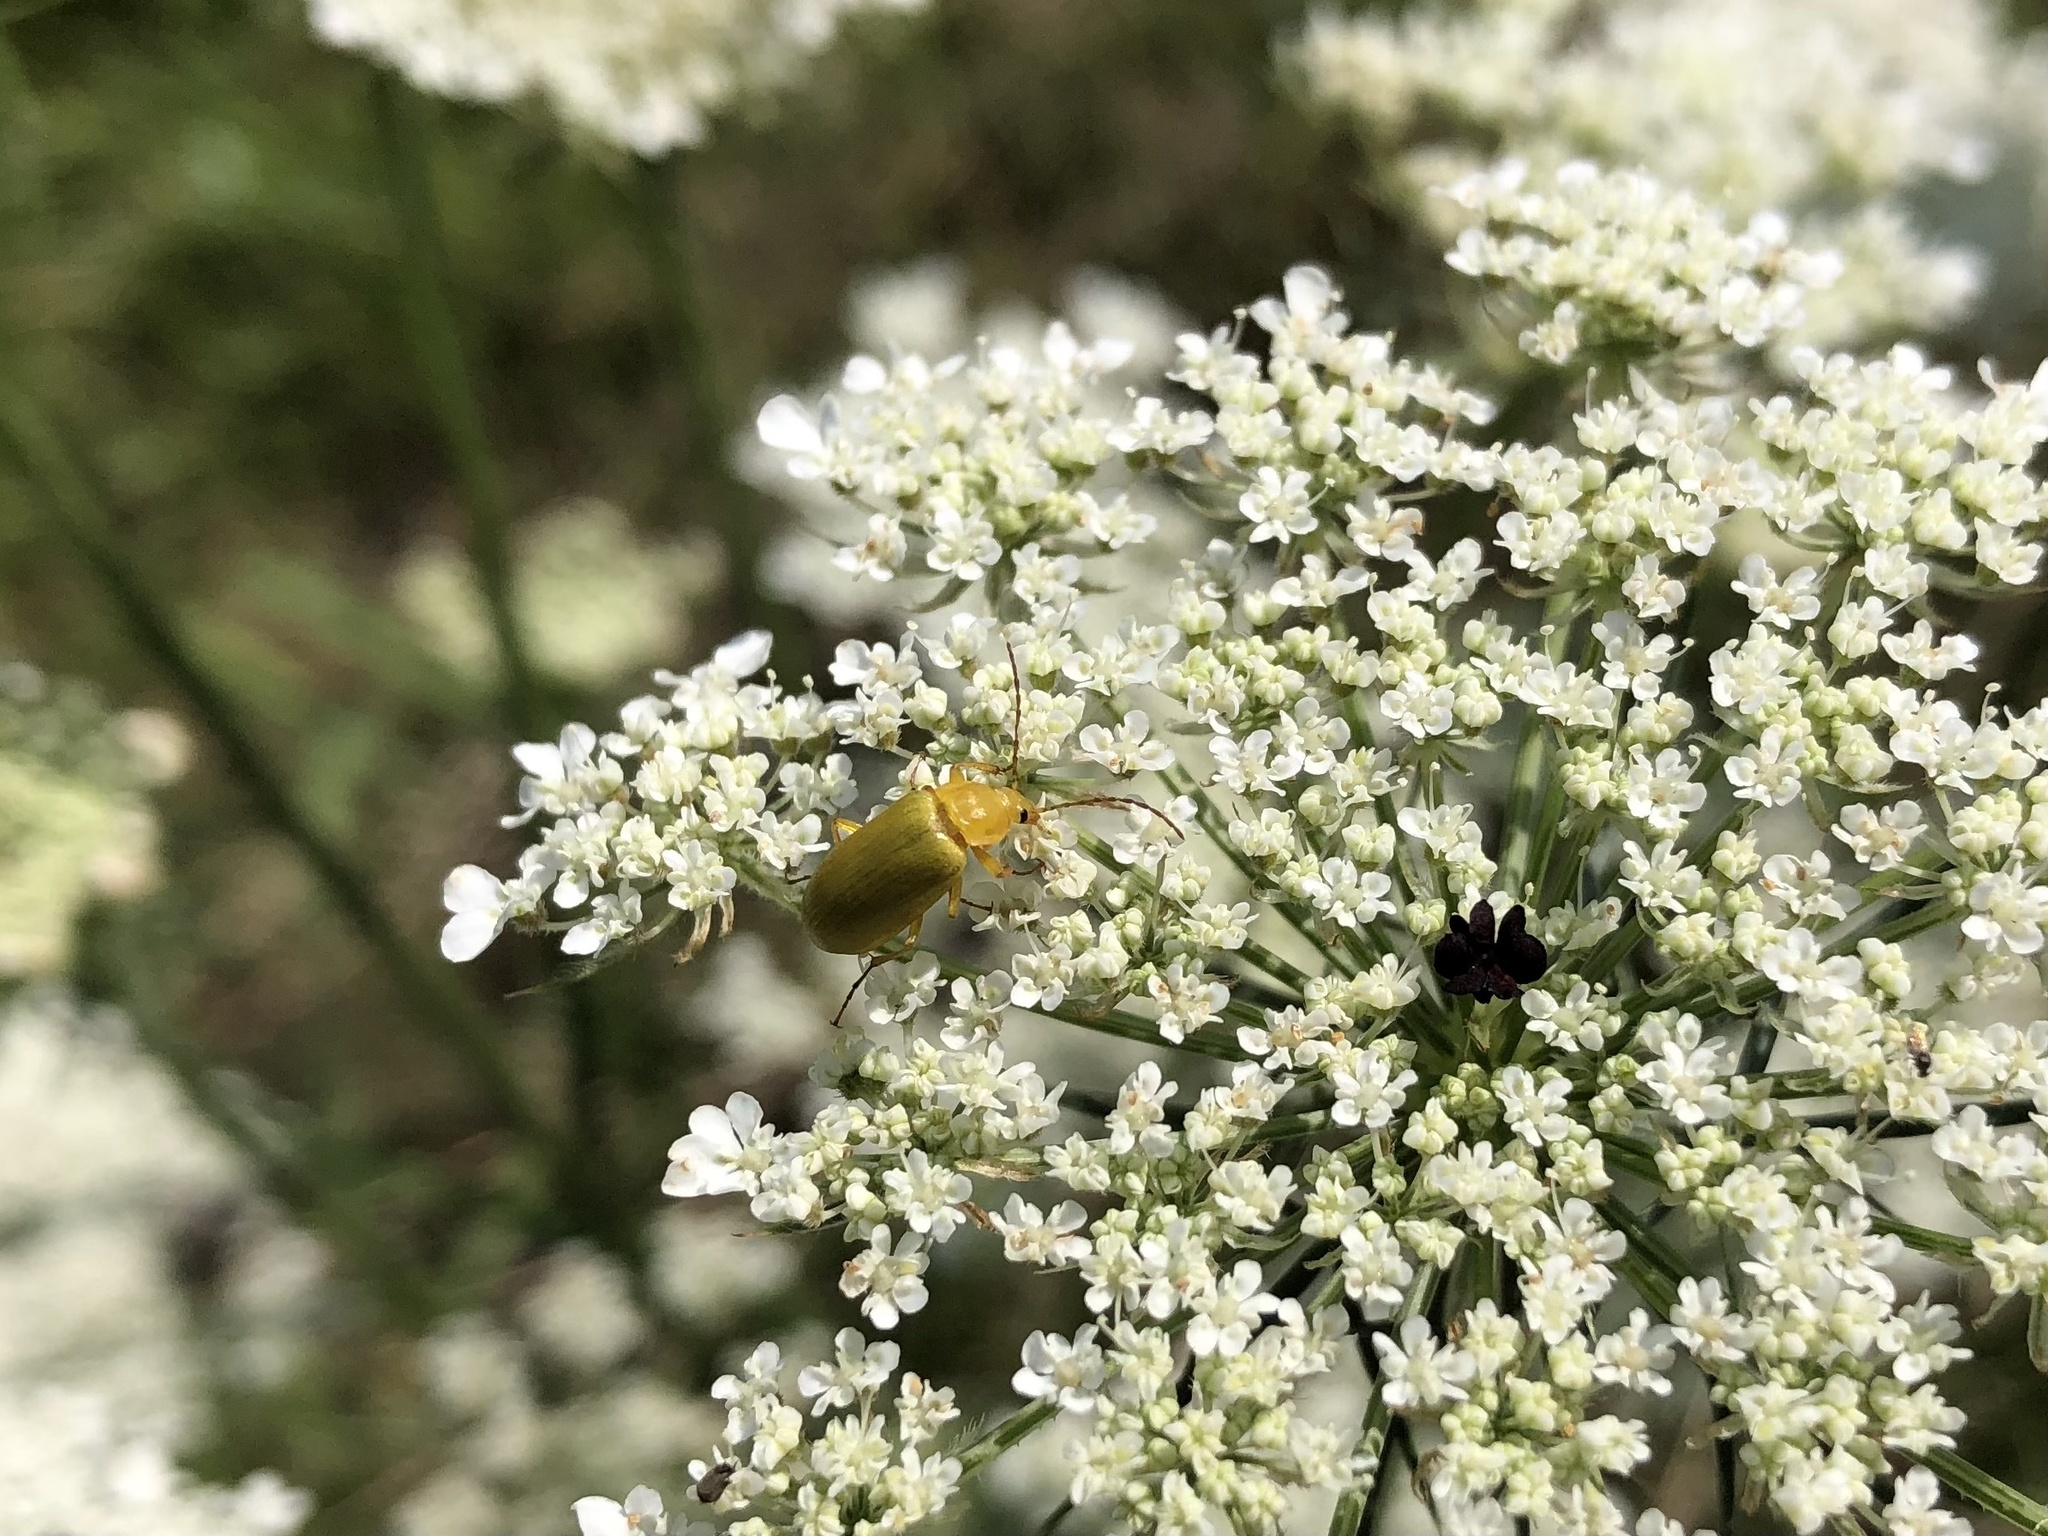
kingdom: Animalia
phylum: Arthropoda
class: Insecta
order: Coleoptera
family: Tenebrionidae
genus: Cteniopus
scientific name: Cteniopus sulphureus
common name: Sulphur beetle
